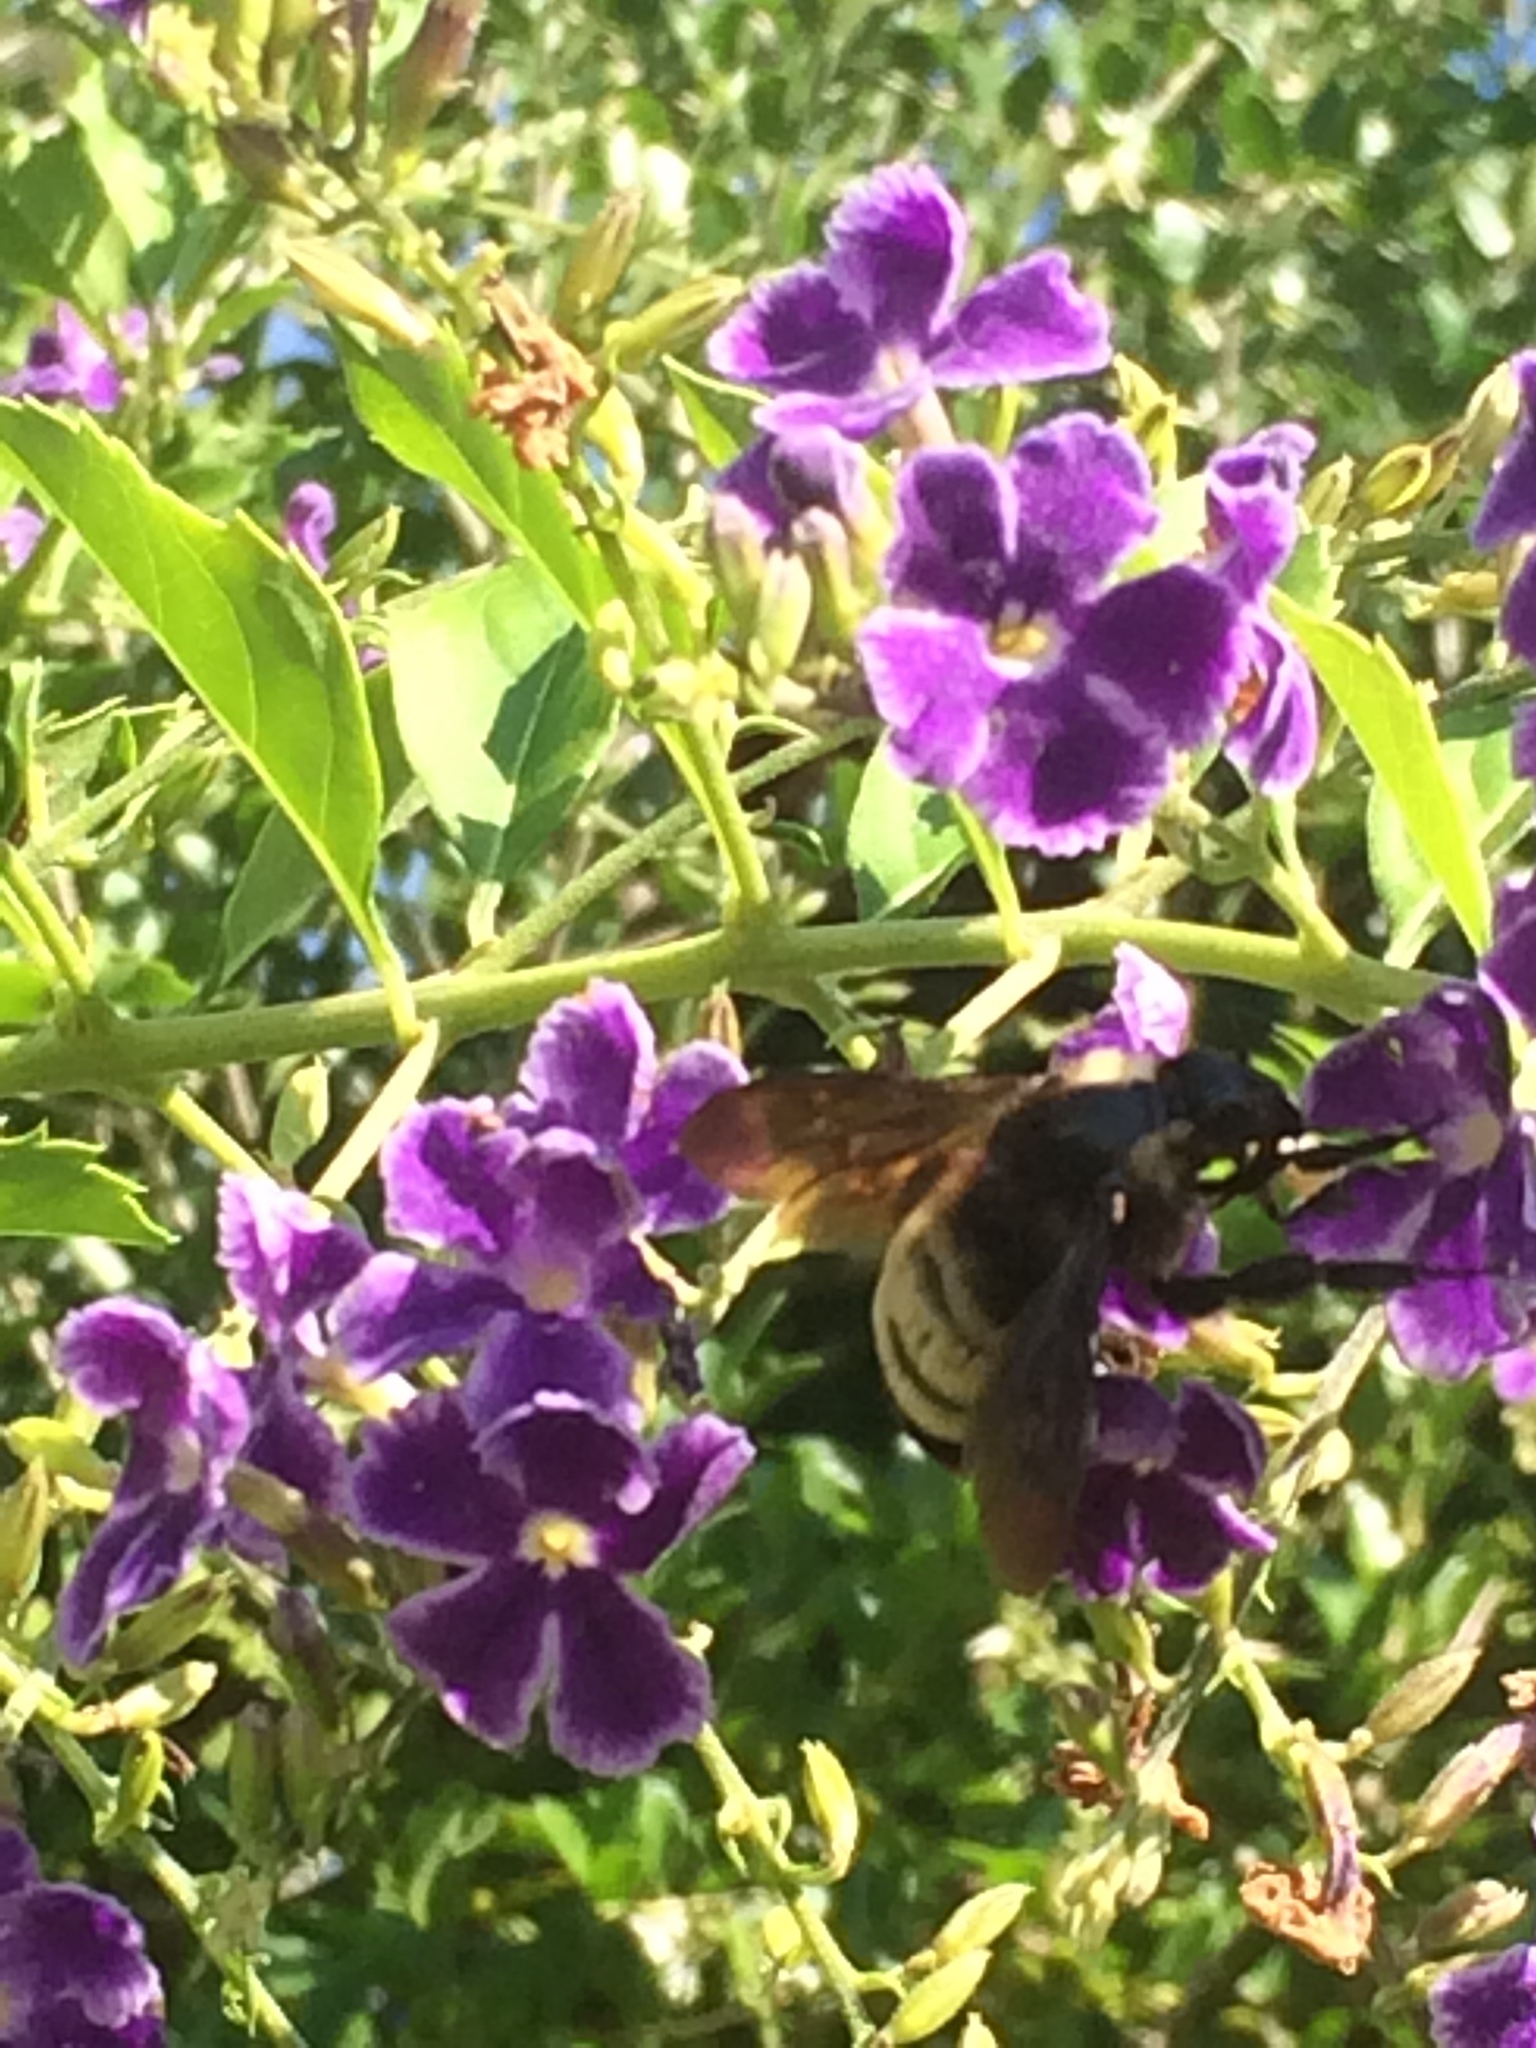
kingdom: Animalia
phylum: Arthropoda
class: Insecta
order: Hymenoptera
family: Apidae
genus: Bombus
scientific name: Bombus pensylvanicus
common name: Bumble bee
